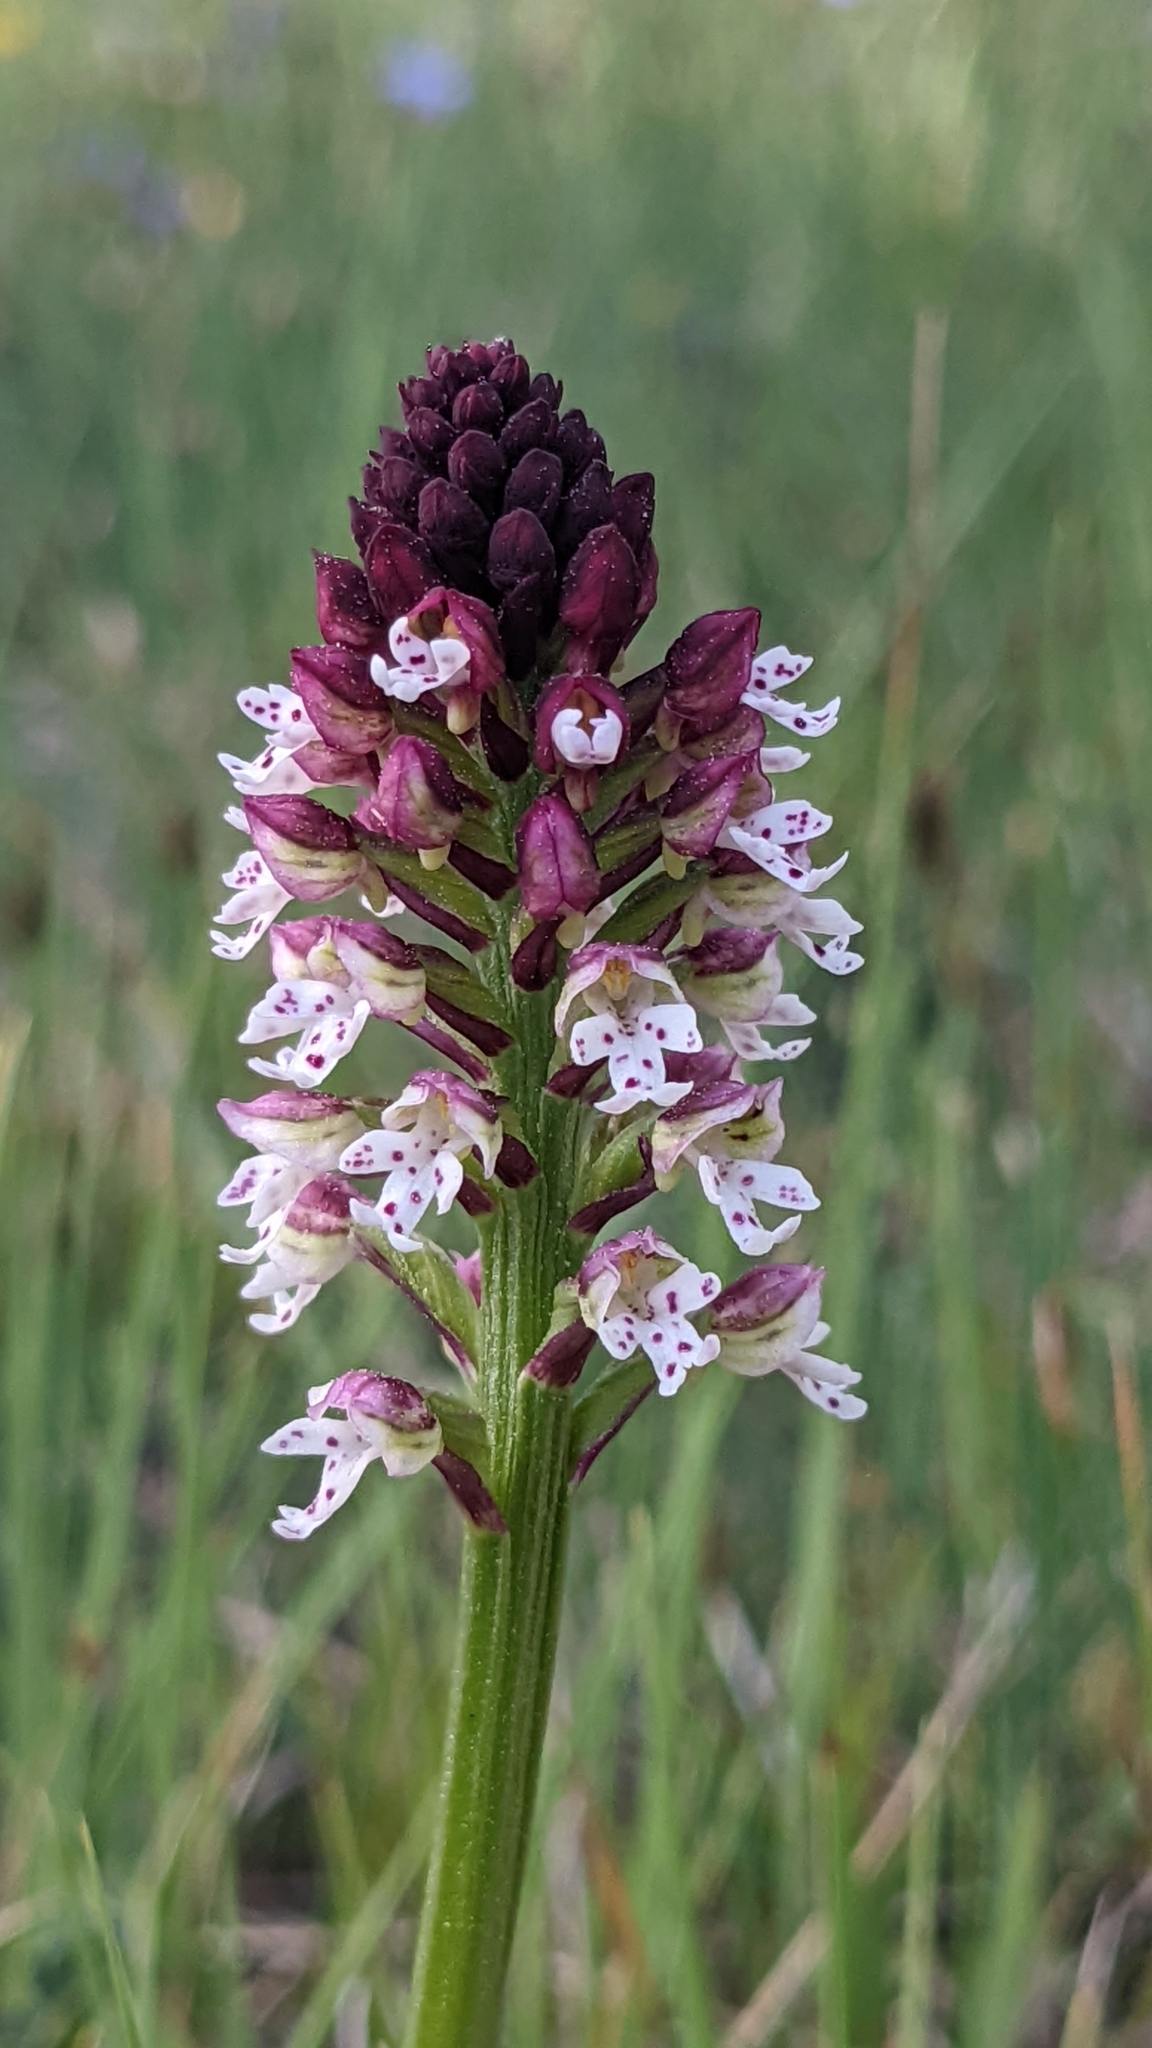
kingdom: Plantae
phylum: Tracheophyta
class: Liliopsida
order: Asparagales
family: Orchidaceae
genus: Neotinea
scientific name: Neotinea ustulata
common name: Burnt orchid
